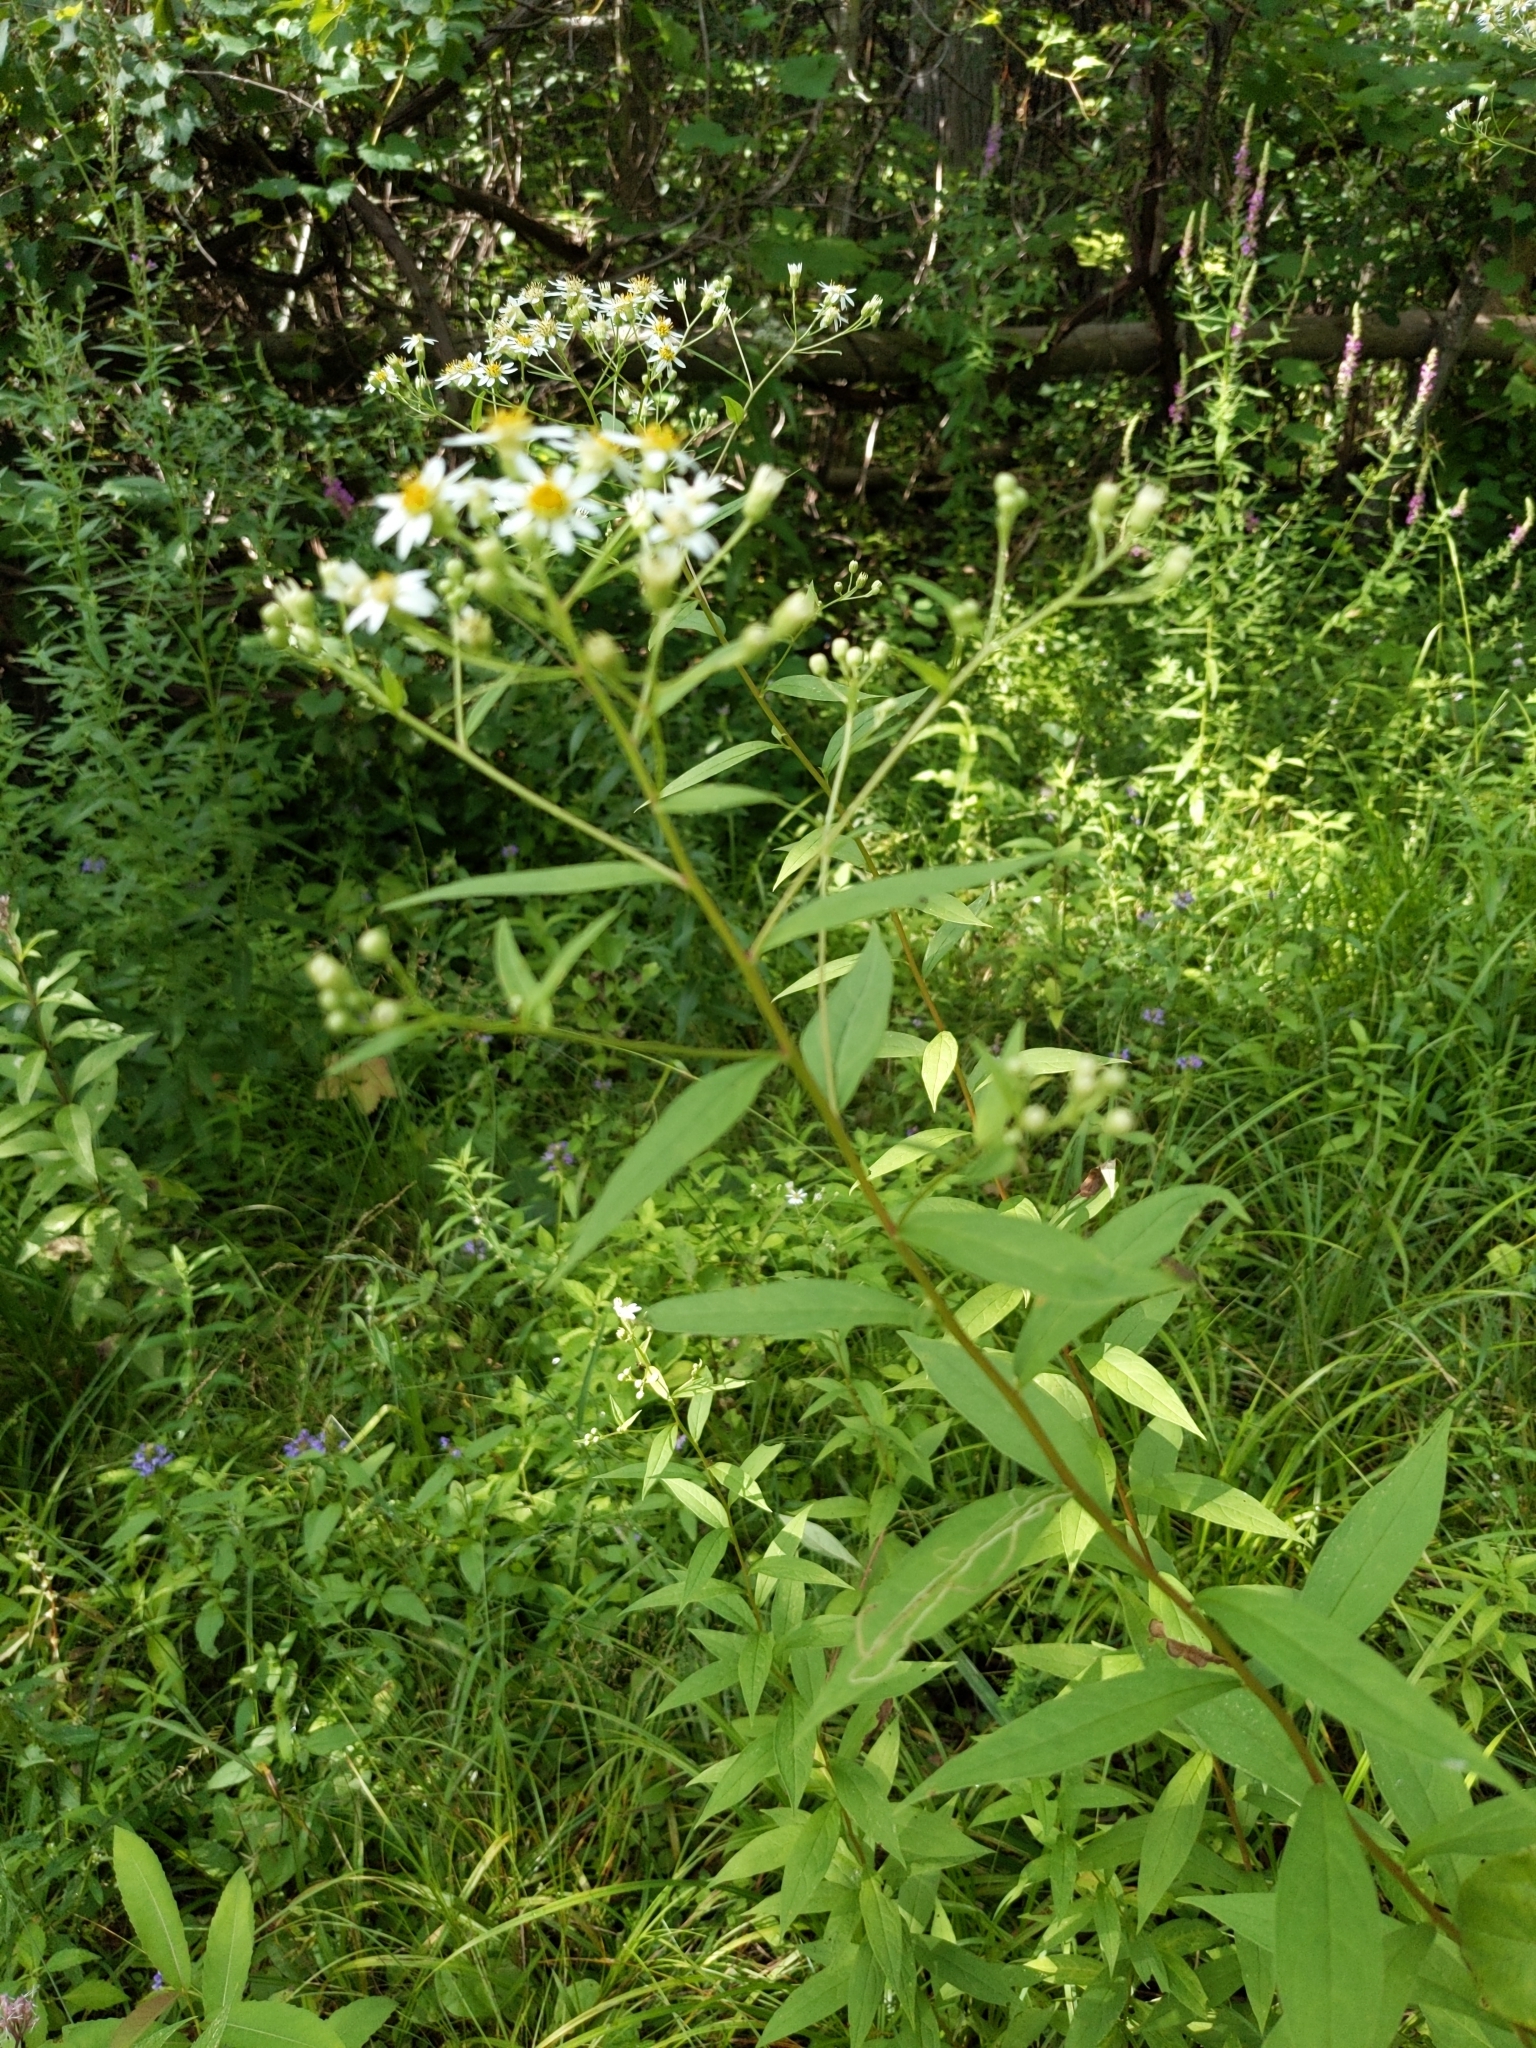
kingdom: Plantae
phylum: Tracheophyta
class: Magnoliopsida
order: Asterales
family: Asteraceae
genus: Doellingeria
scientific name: Doellingeria umbellata
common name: Flat-top white aster
